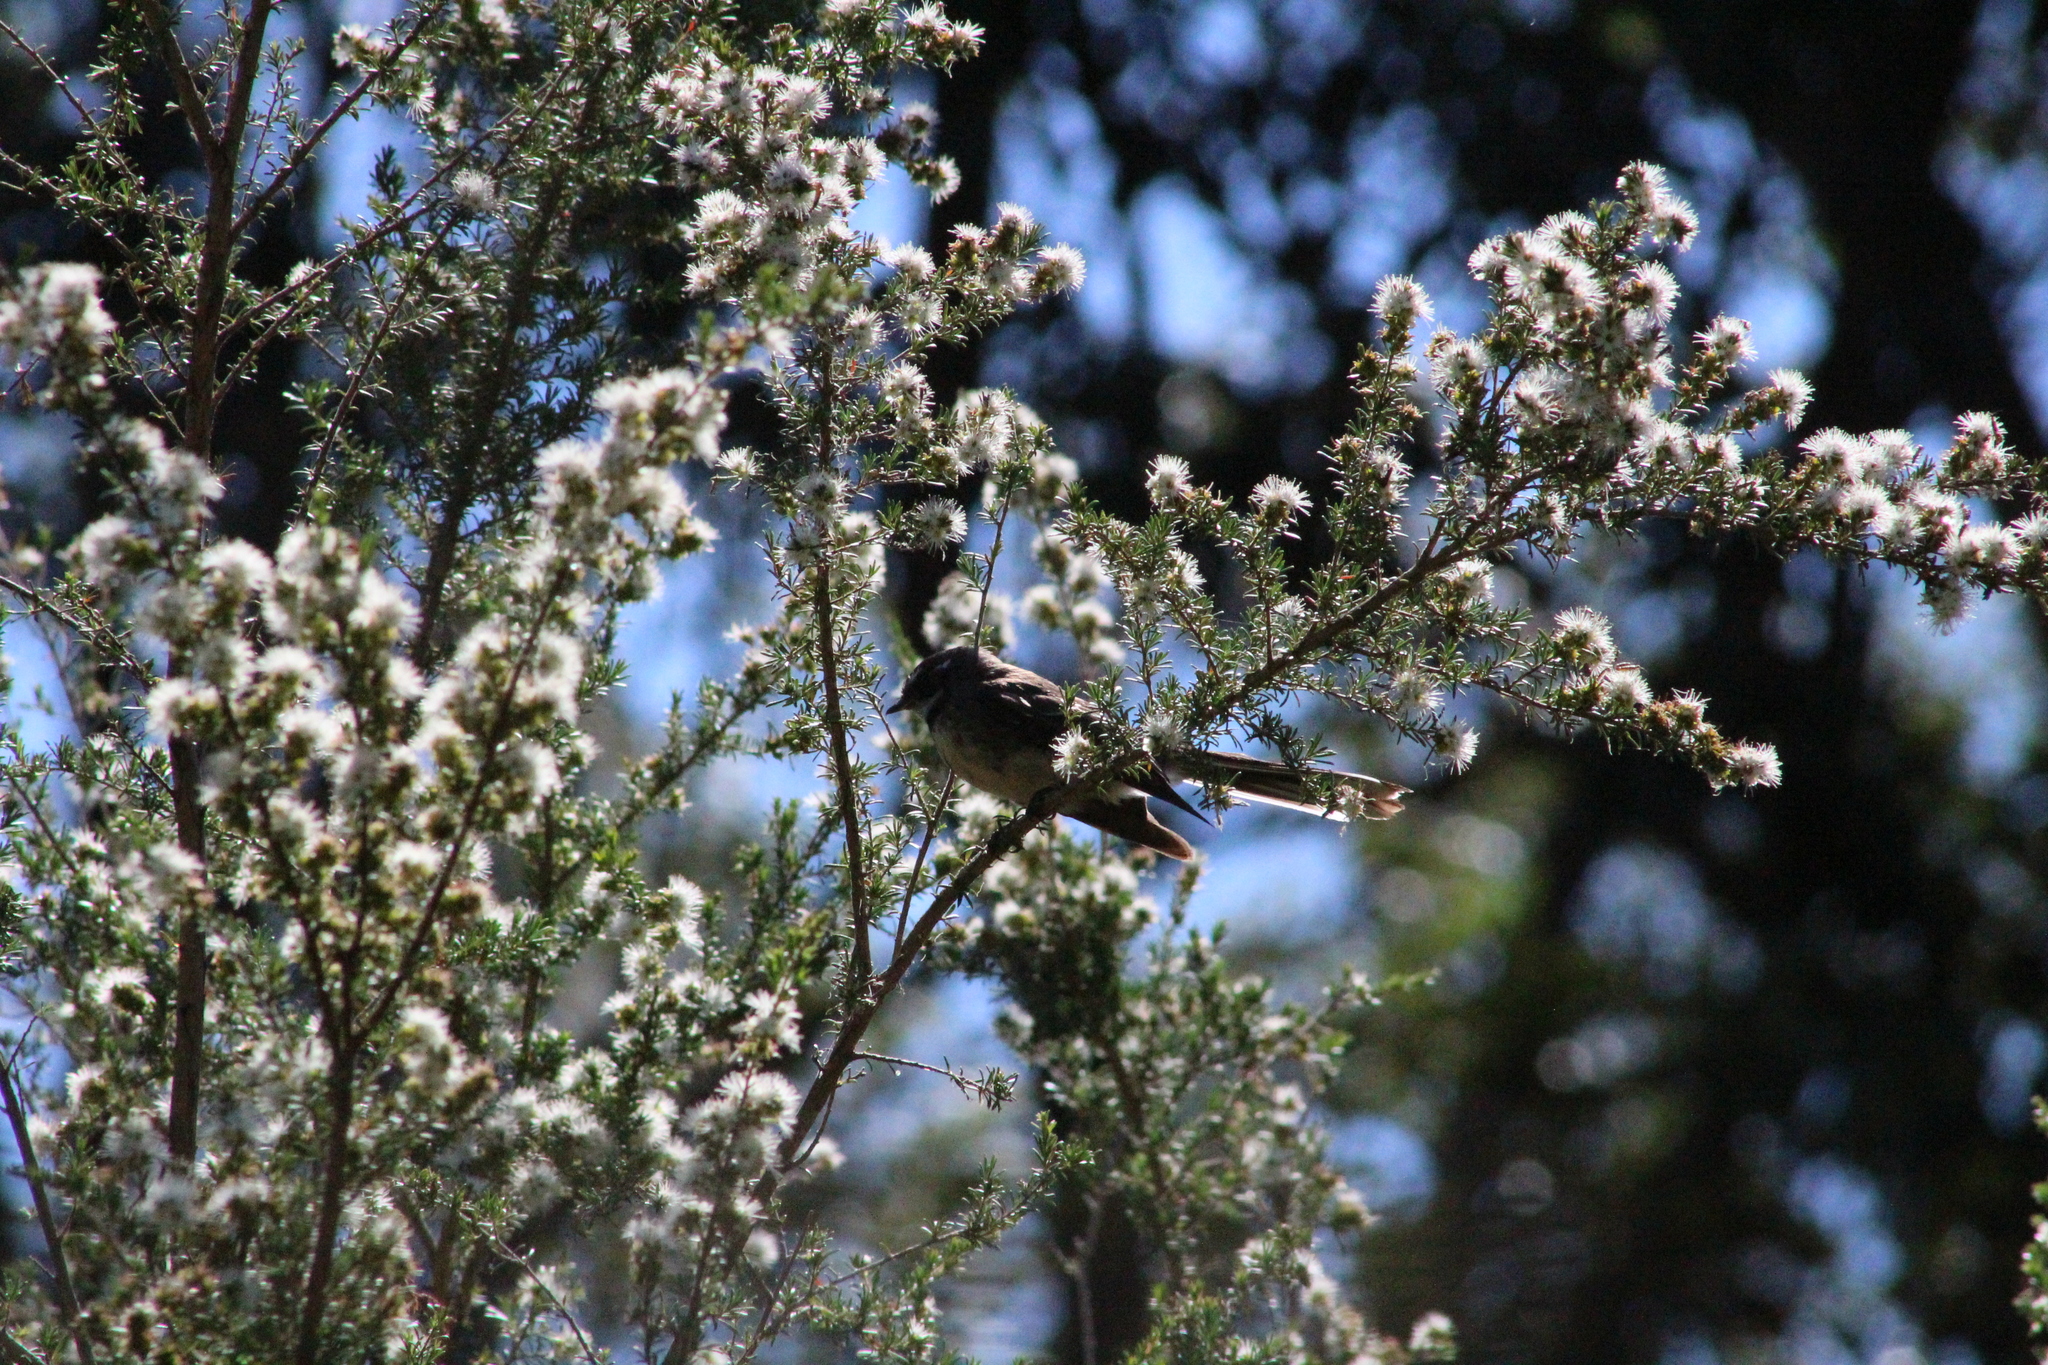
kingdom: Animalia
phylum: Chordata
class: Aves
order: Passeriformes
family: Rhipiduridae
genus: Rhipidura
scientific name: Rhipidura albiscapa
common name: Grey fantail
